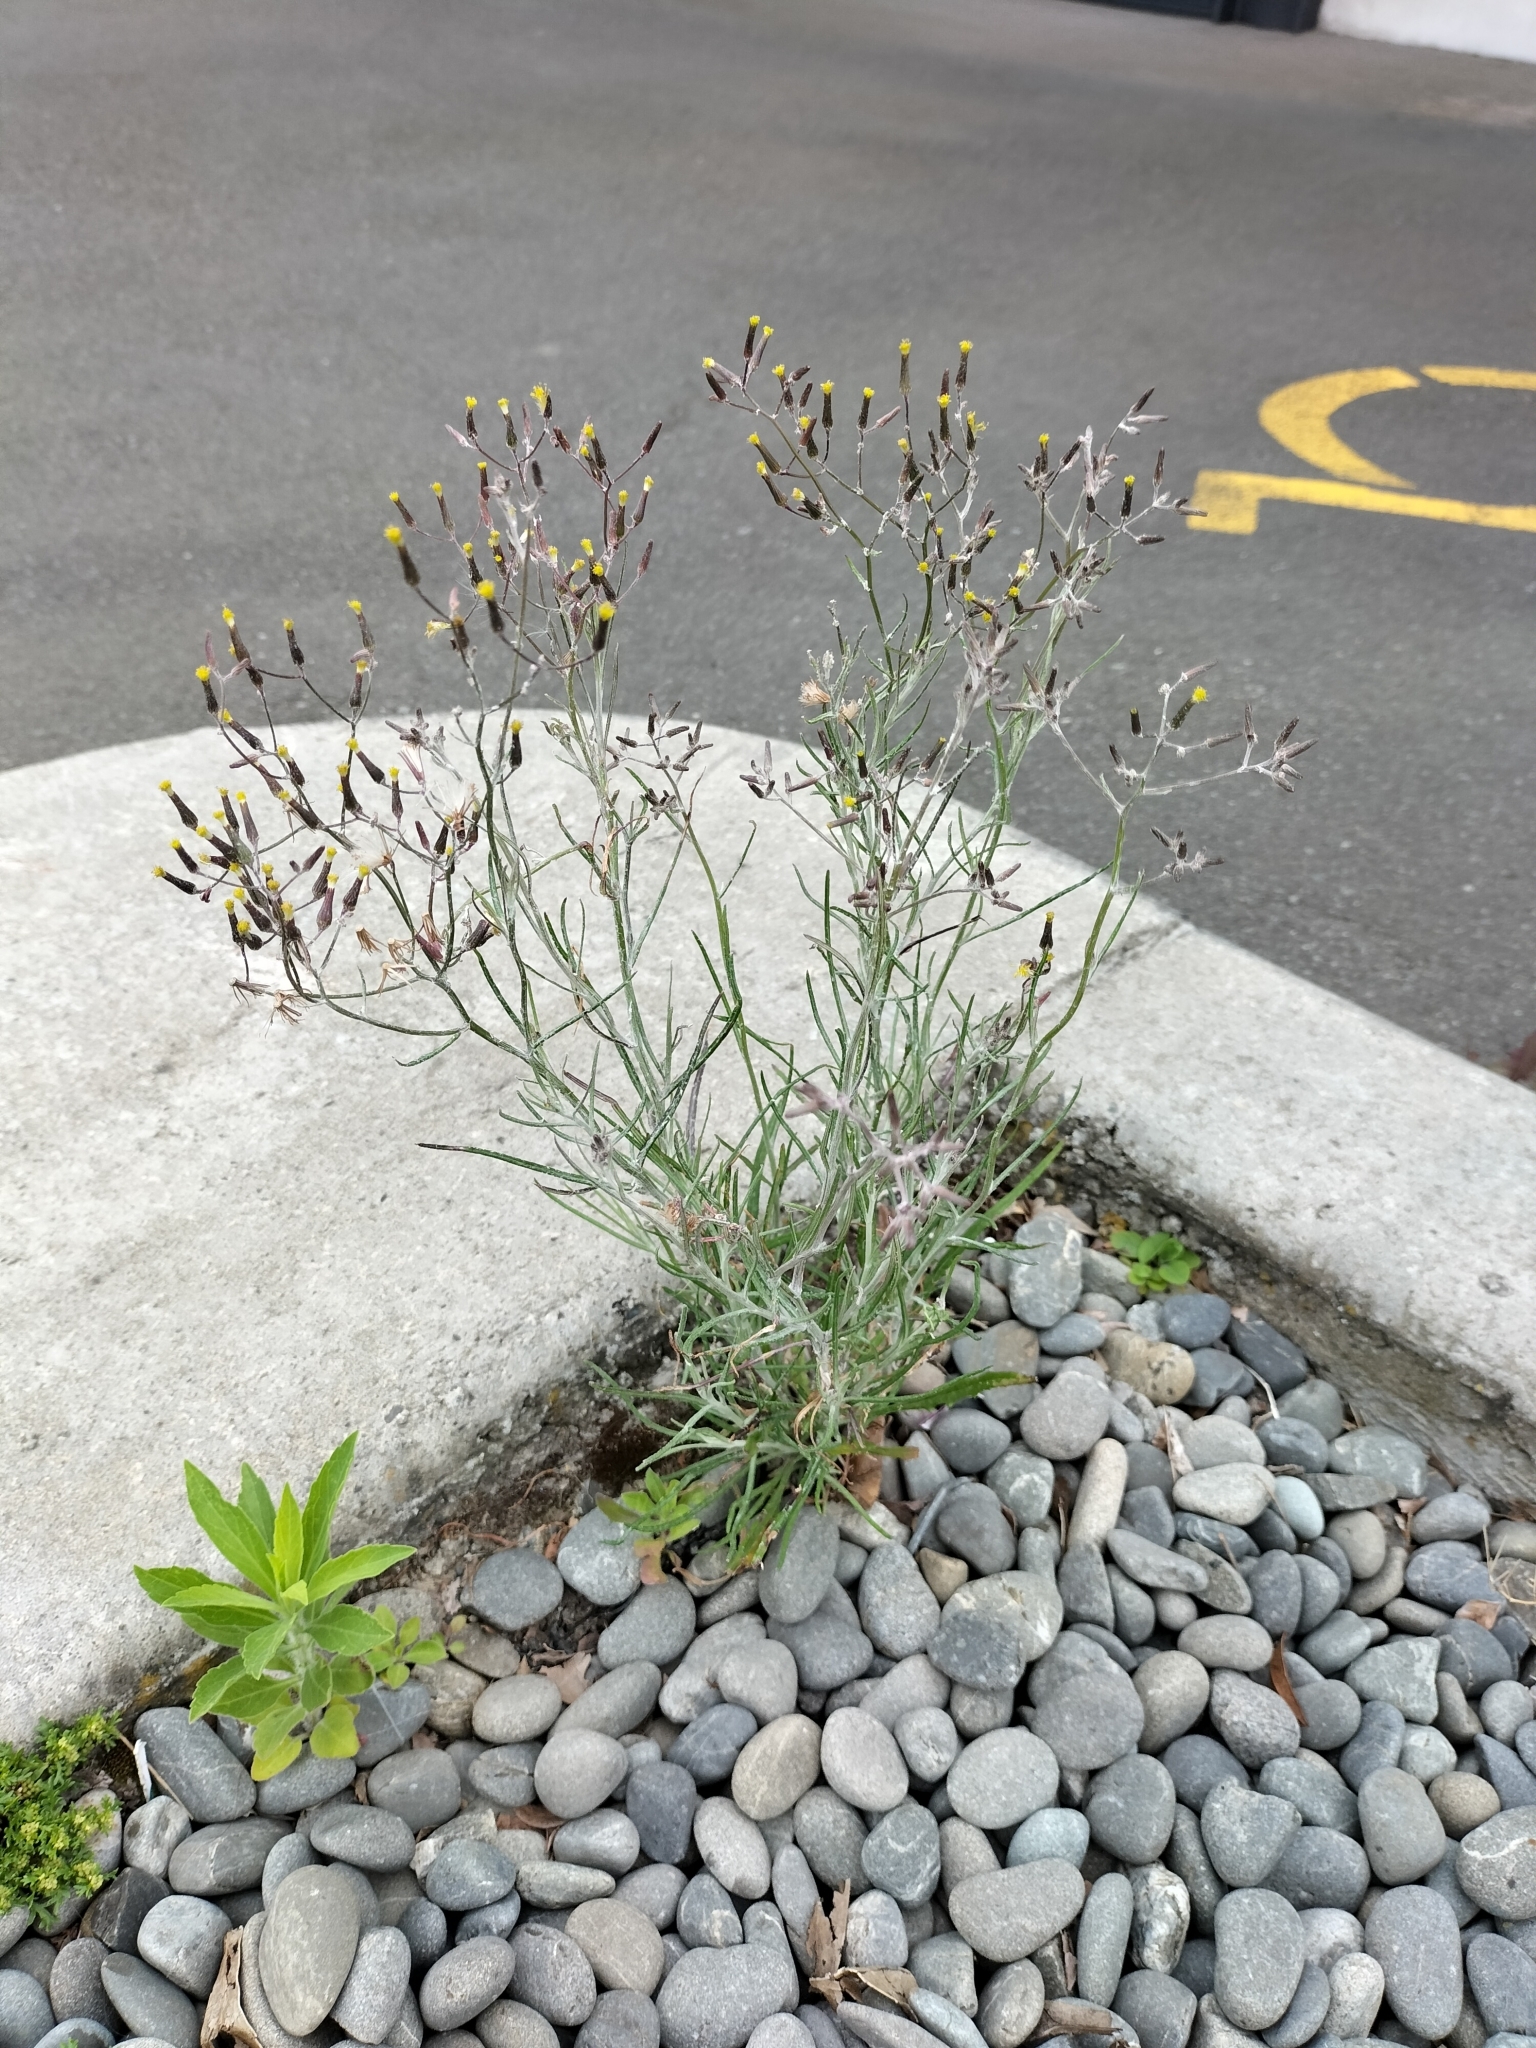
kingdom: Plantae
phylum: Tracheophyta
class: Magnoliopsida
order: Asterales
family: Asteraceae
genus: Senecio
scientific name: Senecio quadridentatus
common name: Cotton fireweed
